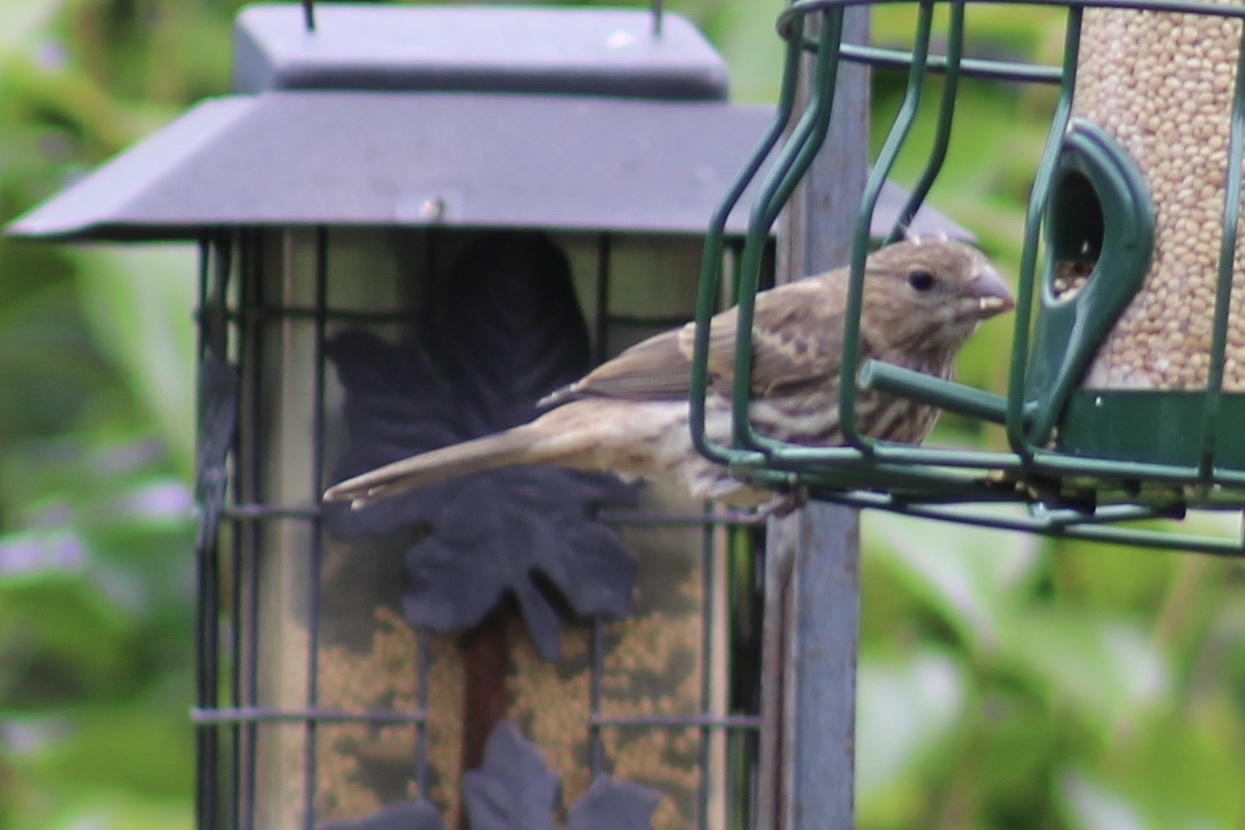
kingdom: Animalia
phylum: Chordata
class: Aves
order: Passeriformes
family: Fringillidae
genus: Haemorhous
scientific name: Haemorhous mexicanus
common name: House finch
